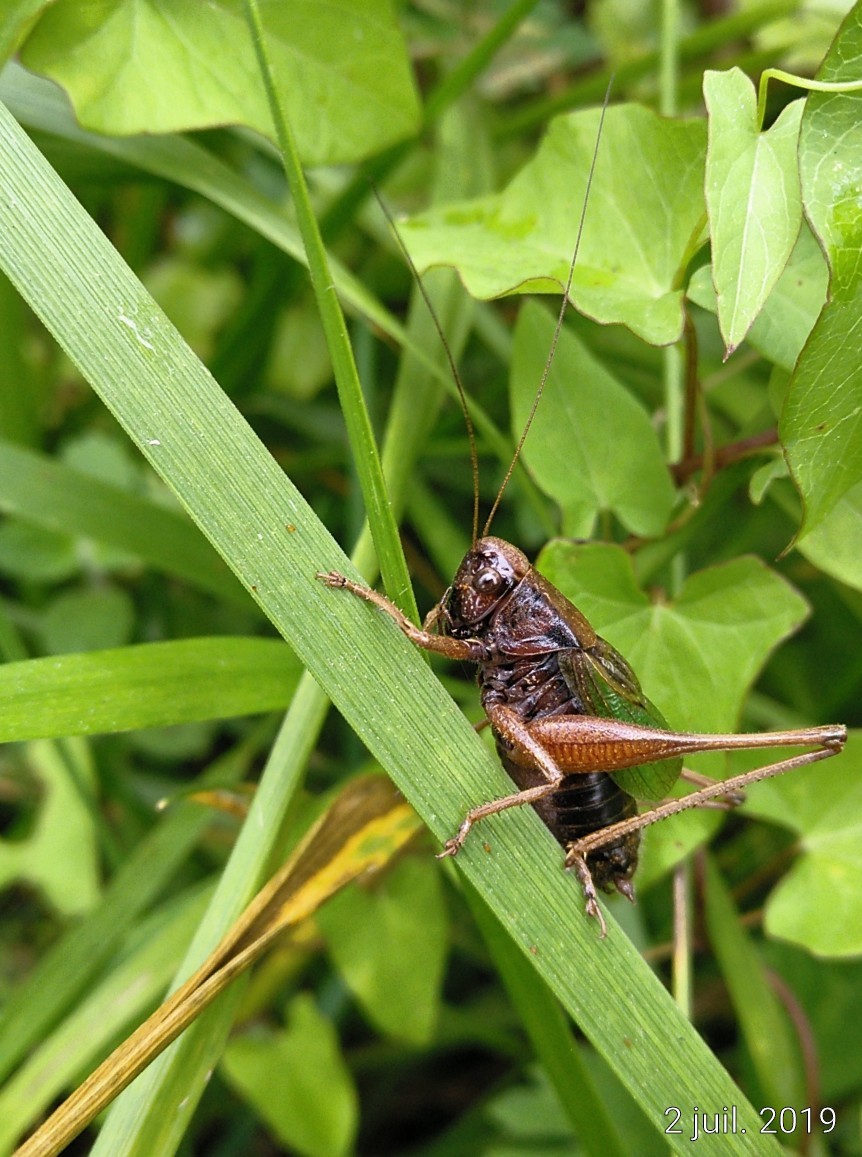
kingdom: Animalia
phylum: Arthropoda
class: Insecta
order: Orthoptera
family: Tettigoniidae
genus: Zeuneriana
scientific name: Zeuneriana abbreviata
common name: Basque bush-cricket
